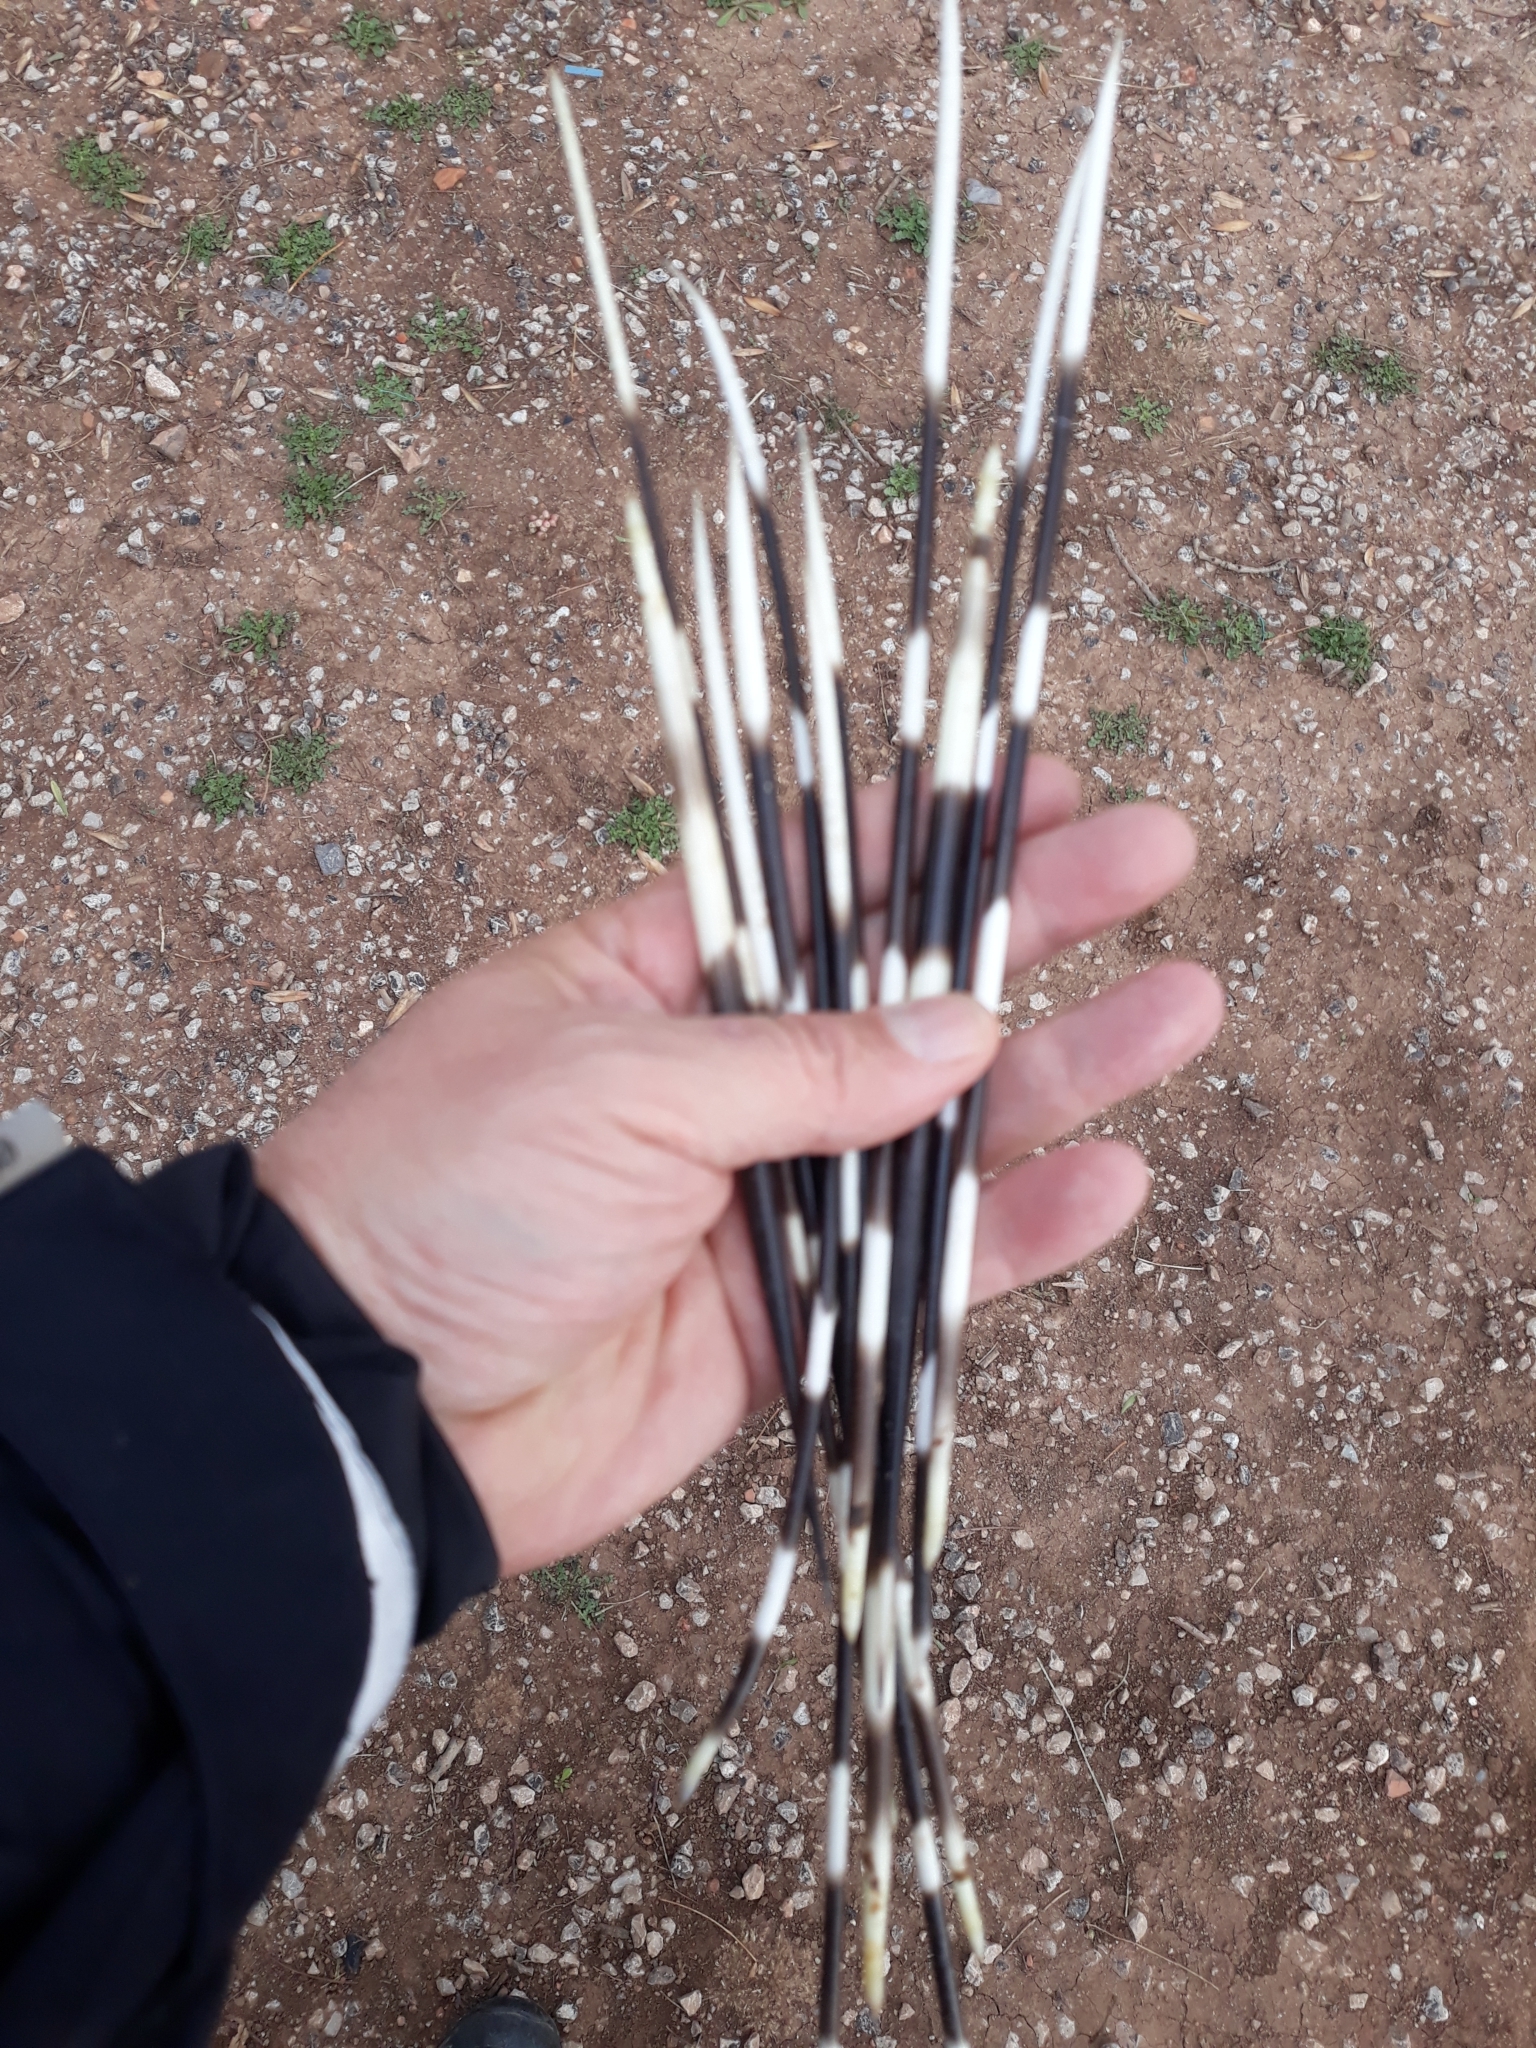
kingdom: Animalia
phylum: Chordata
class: Mammalia
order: Rodentia
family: Hystricidae
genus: Hystrix
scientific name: Hystrix cristata
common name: Crested porcupine
